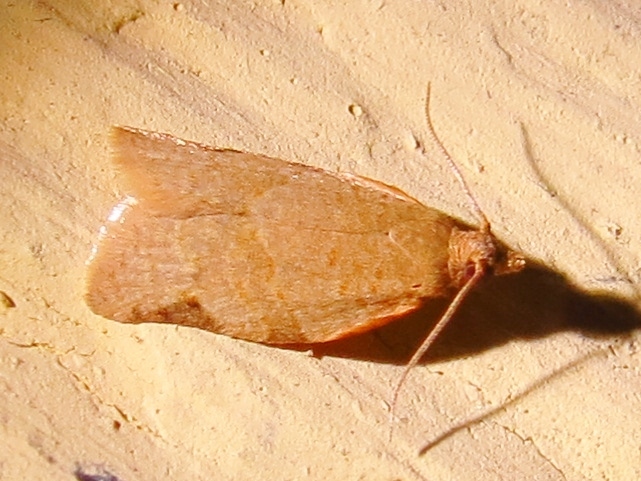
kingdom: Animalia
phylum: Arthropoda
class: Insecta
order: Lepidoptera
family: Tortricidae
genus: Clepsis
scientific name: Clepsis virescana
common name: Greenish apple moth
